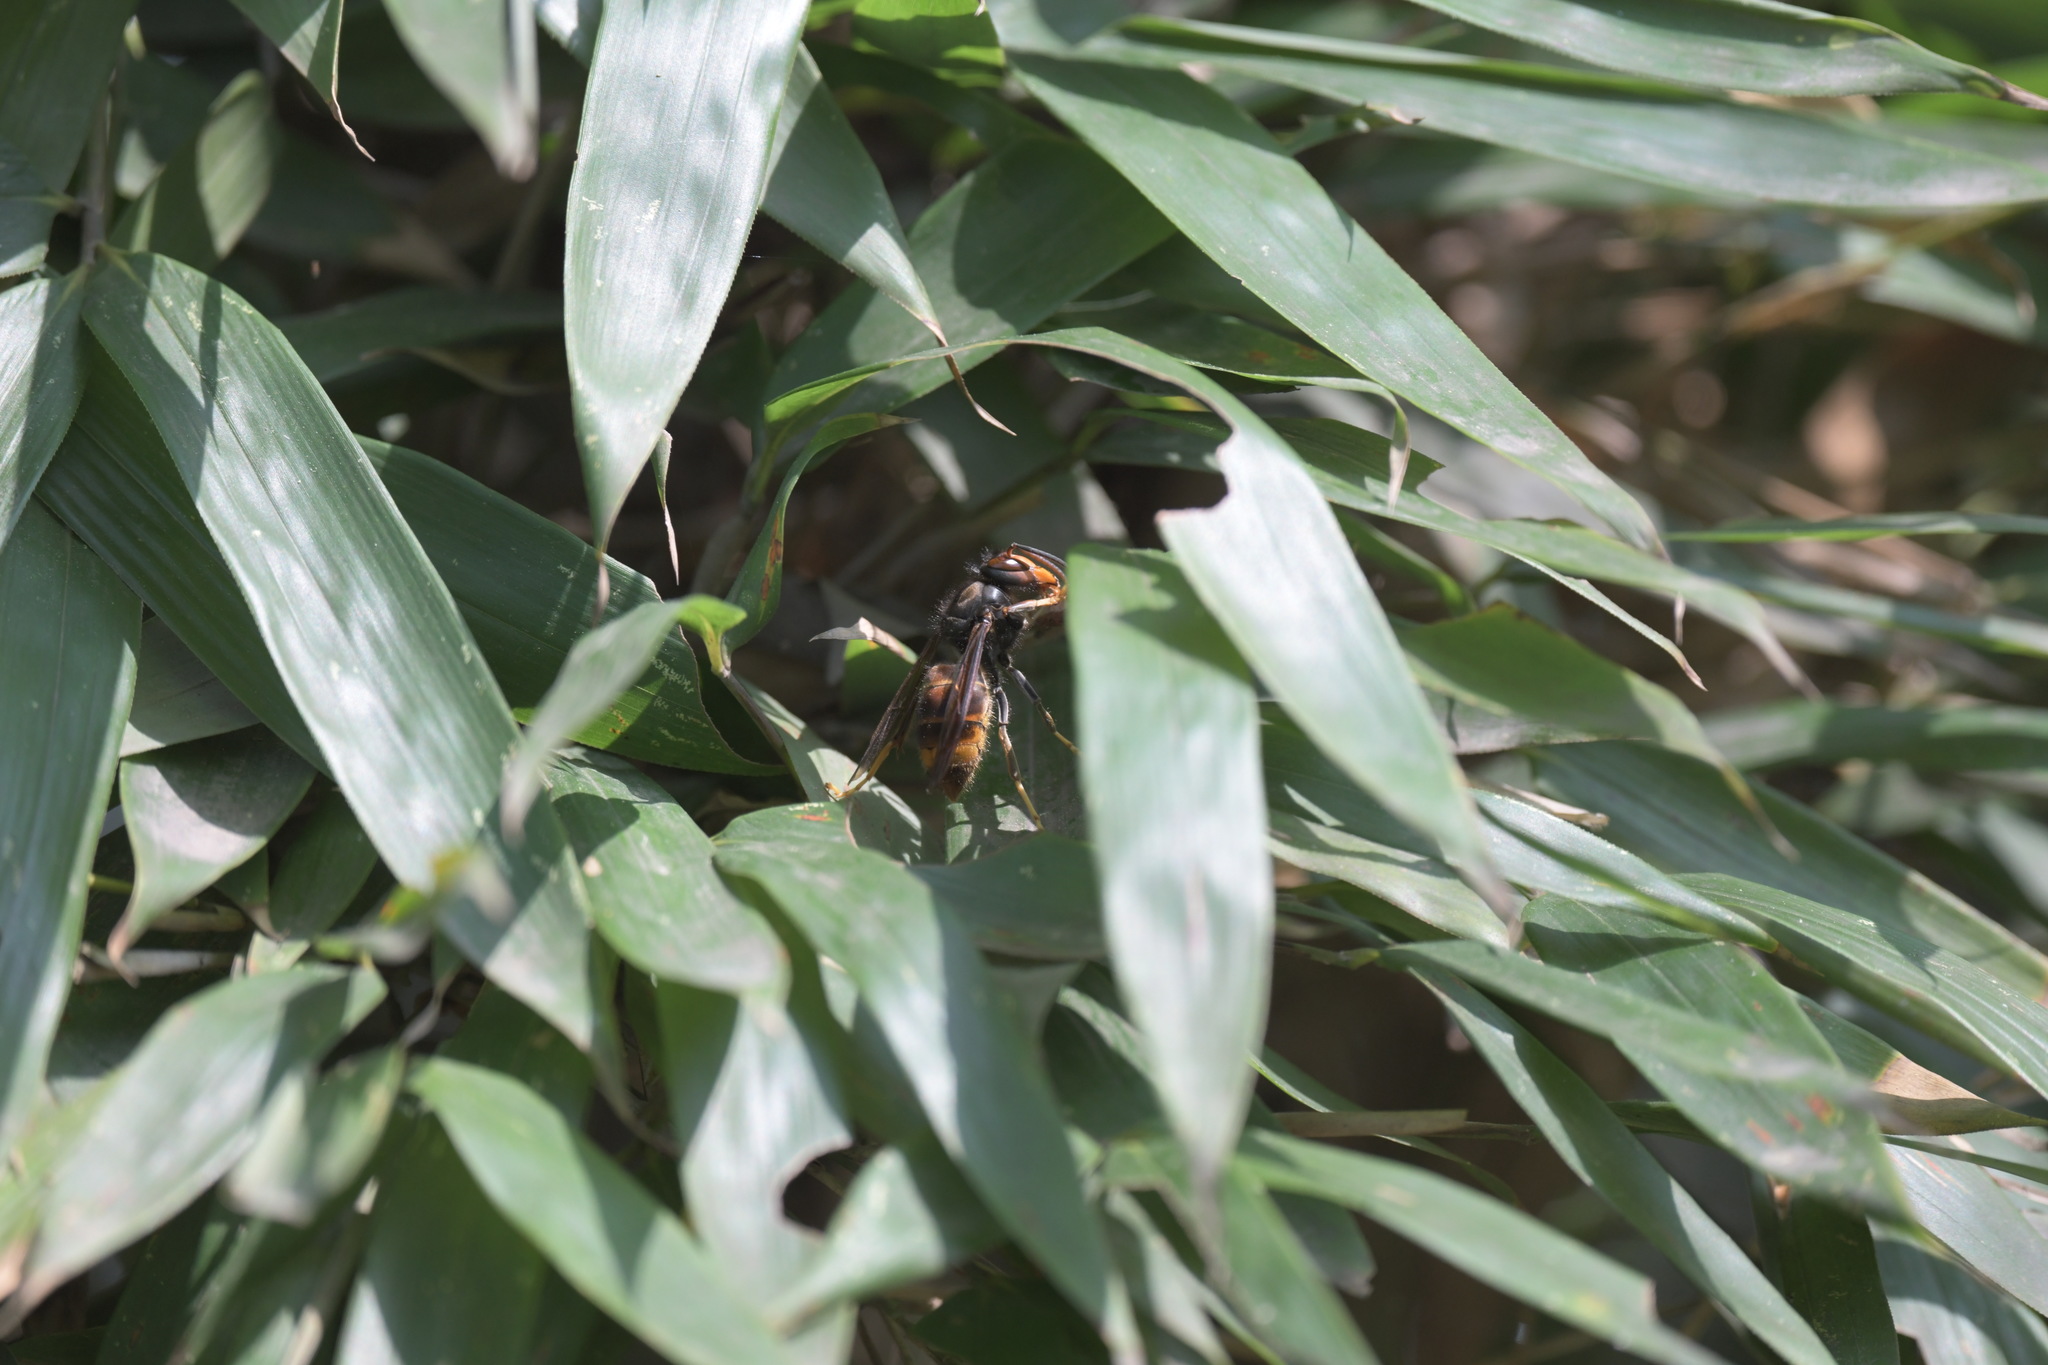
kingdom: Animalia
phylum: Arthropoda
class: Insecta
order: Hymenoptera
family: Vespidae
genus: Vespa
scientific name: Vespa velutina
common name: Asian hornet
